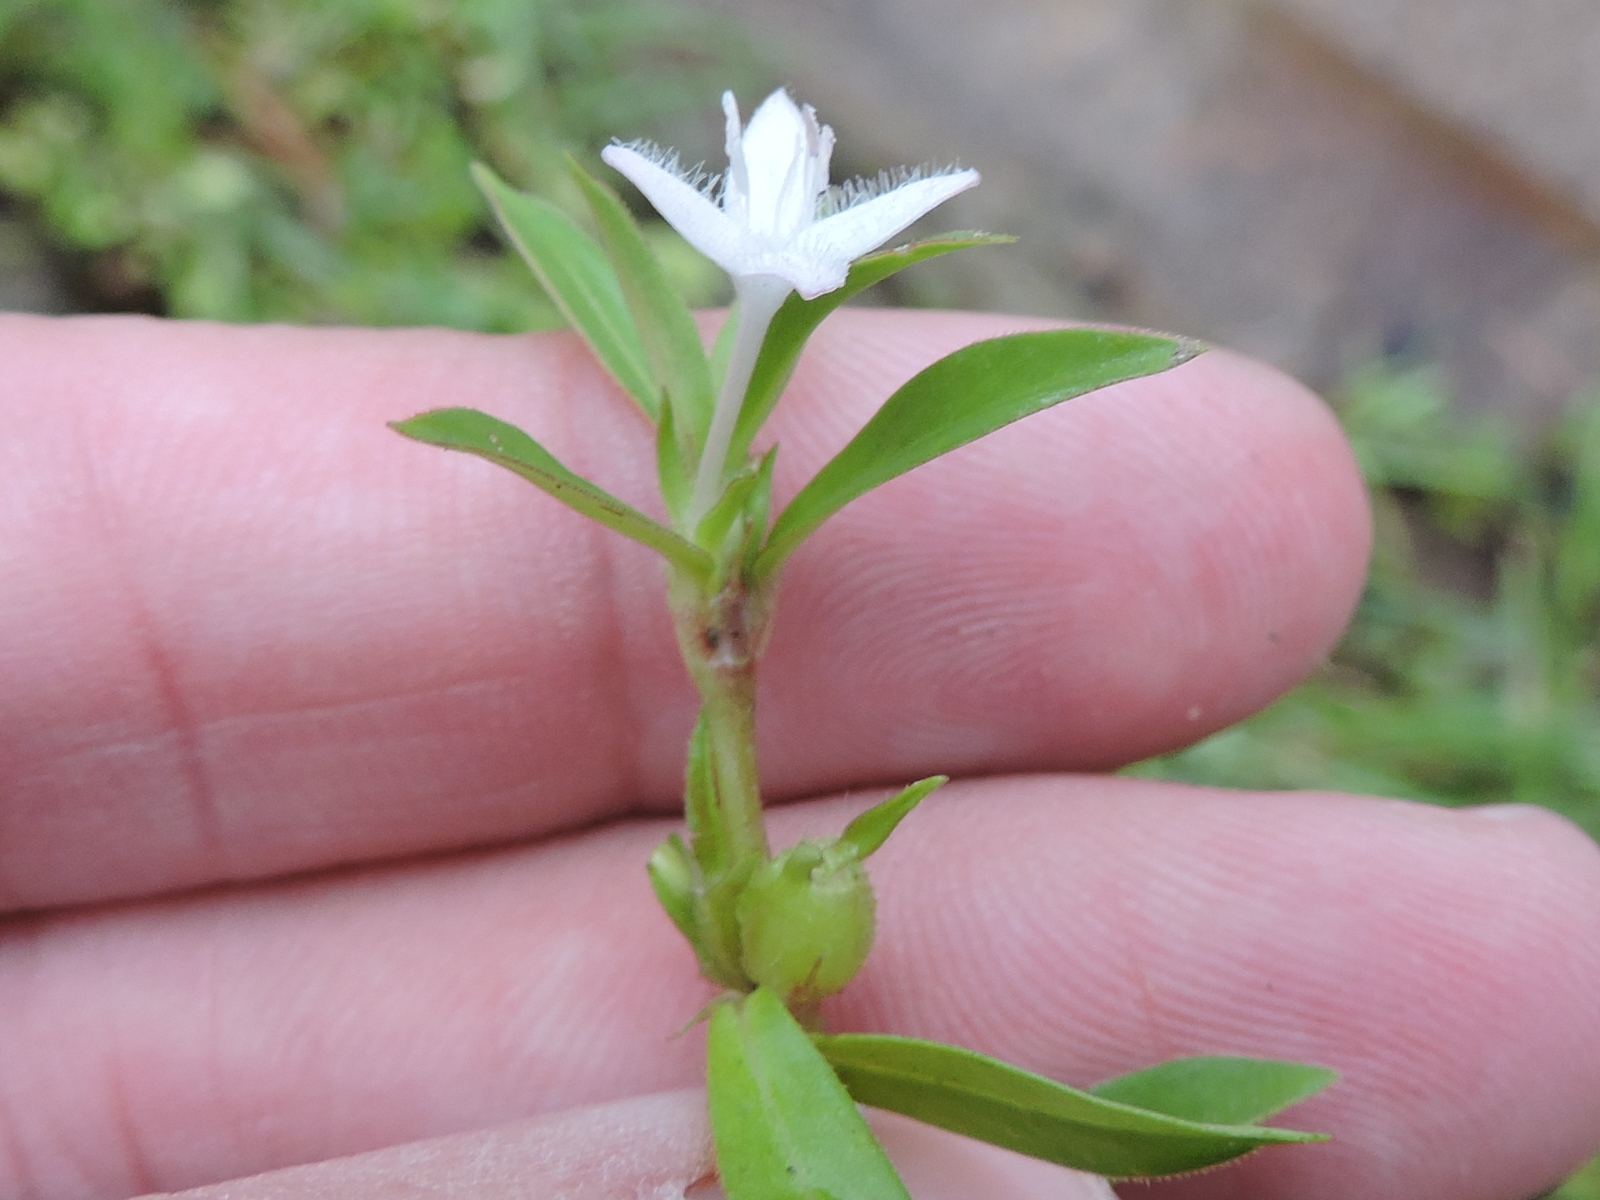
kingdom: Plantae
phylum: Tracheophyta
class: Magnoliopsida
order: Gentianales
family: Rubiaceae
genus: Diodia
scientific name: Diodia virginiana
